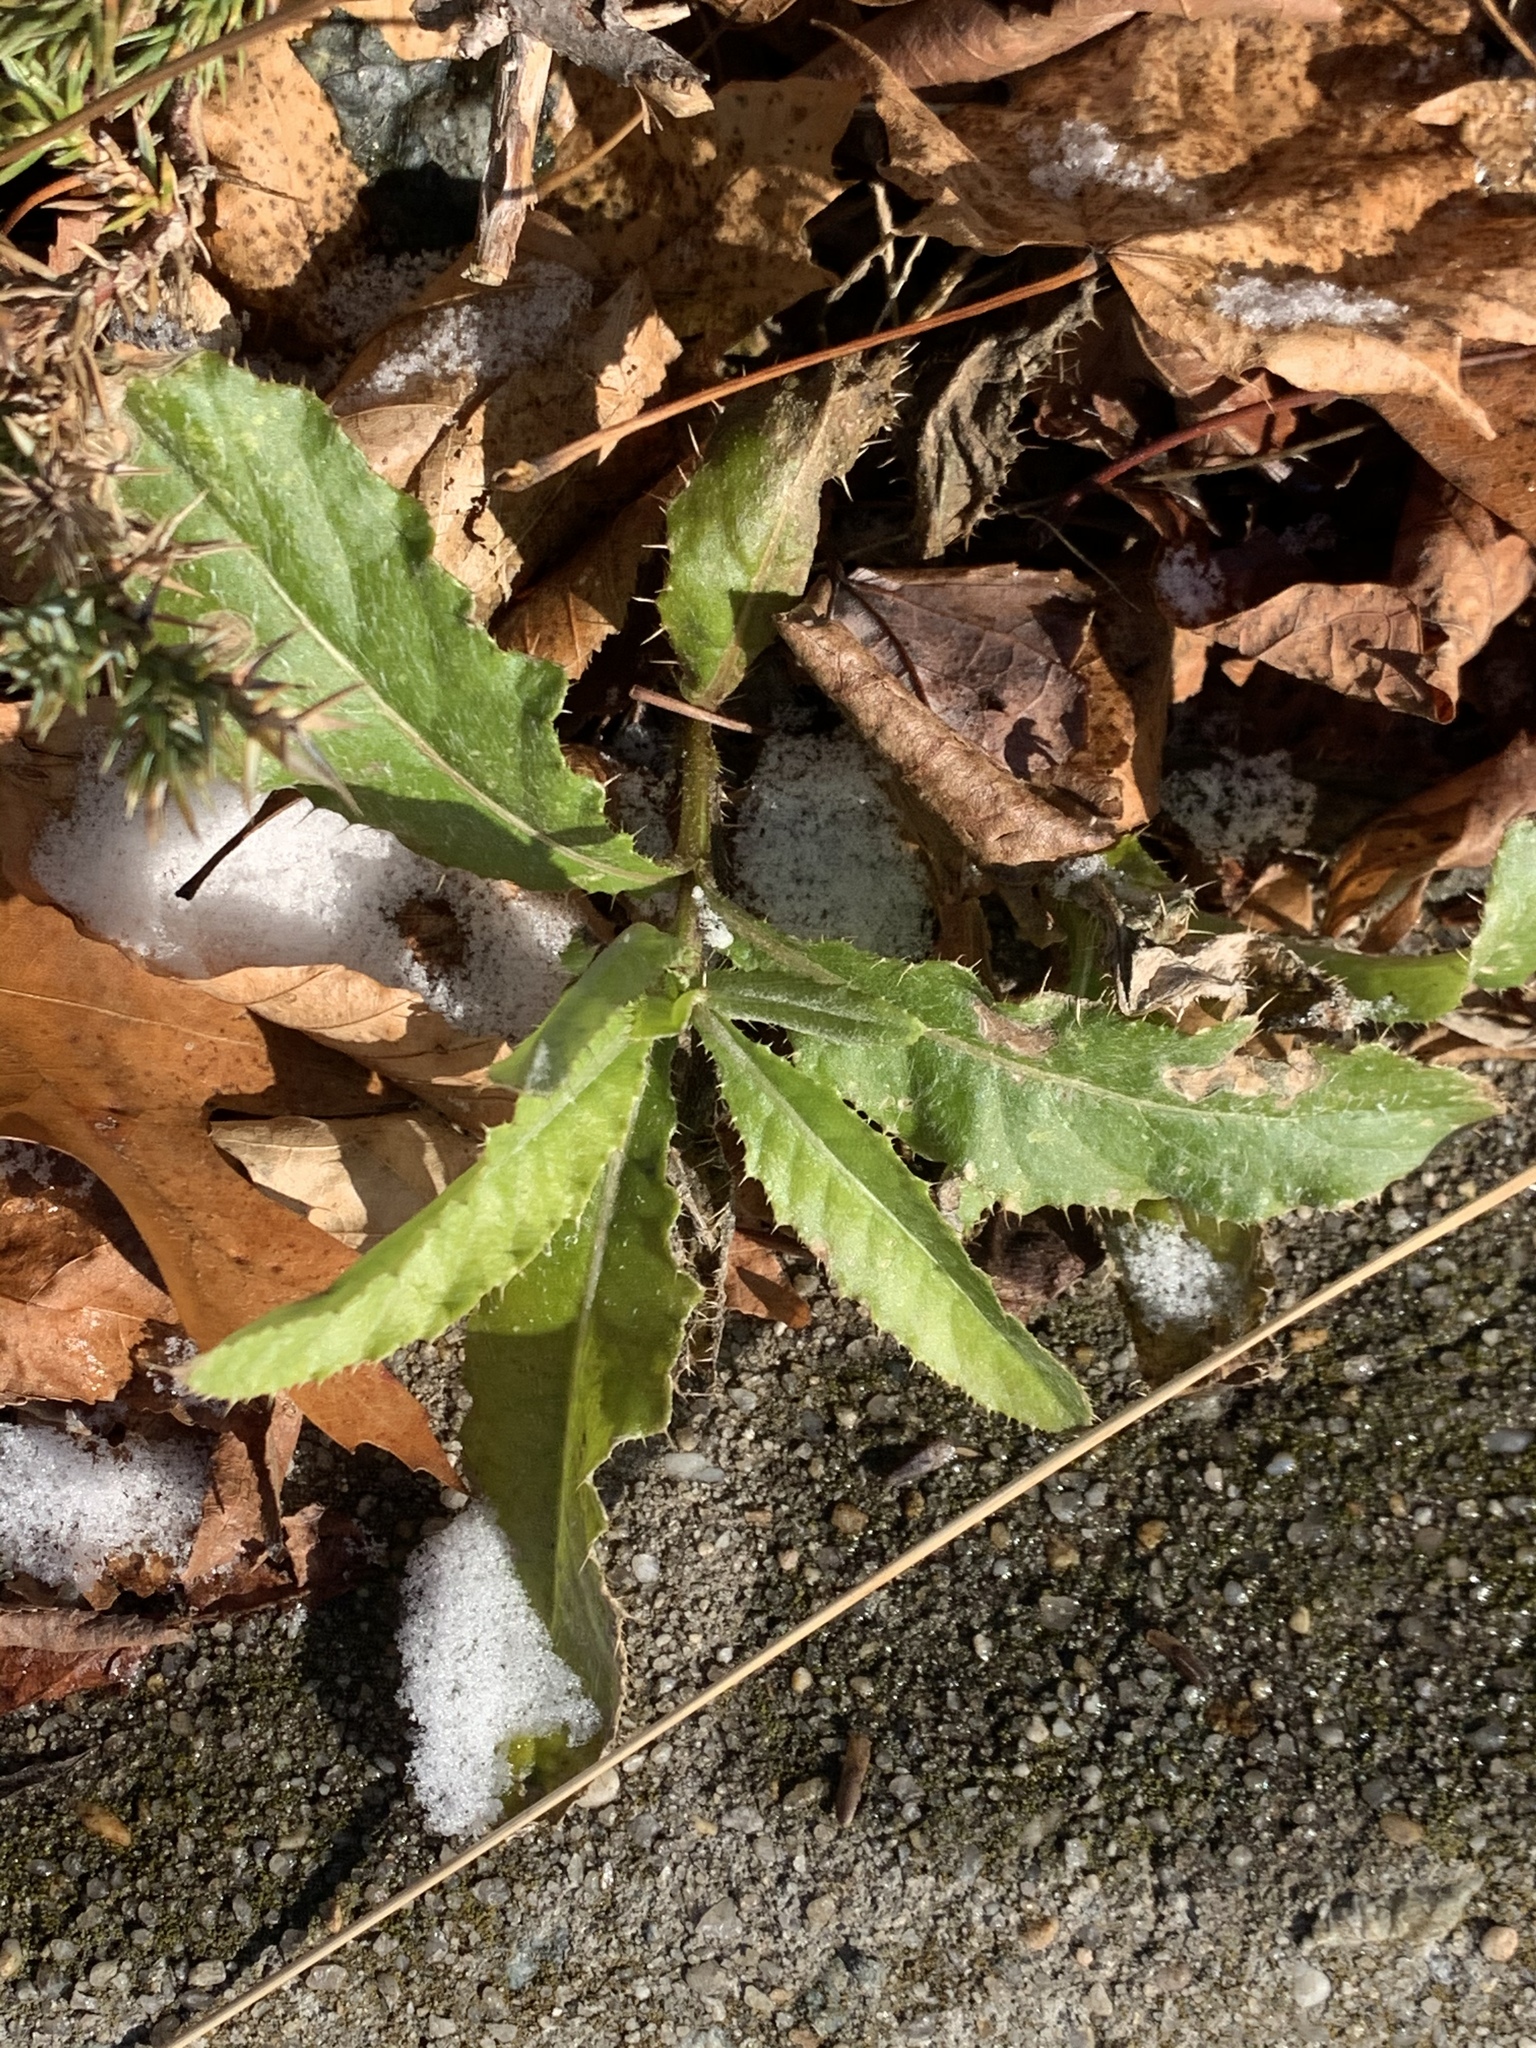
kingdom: Plantae
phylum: Tracheophyta
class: Magnoliopsida
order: Asterales
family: Asteraceae
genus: Cirsium
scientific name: Cirsium arvense
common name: Creeping thistle
